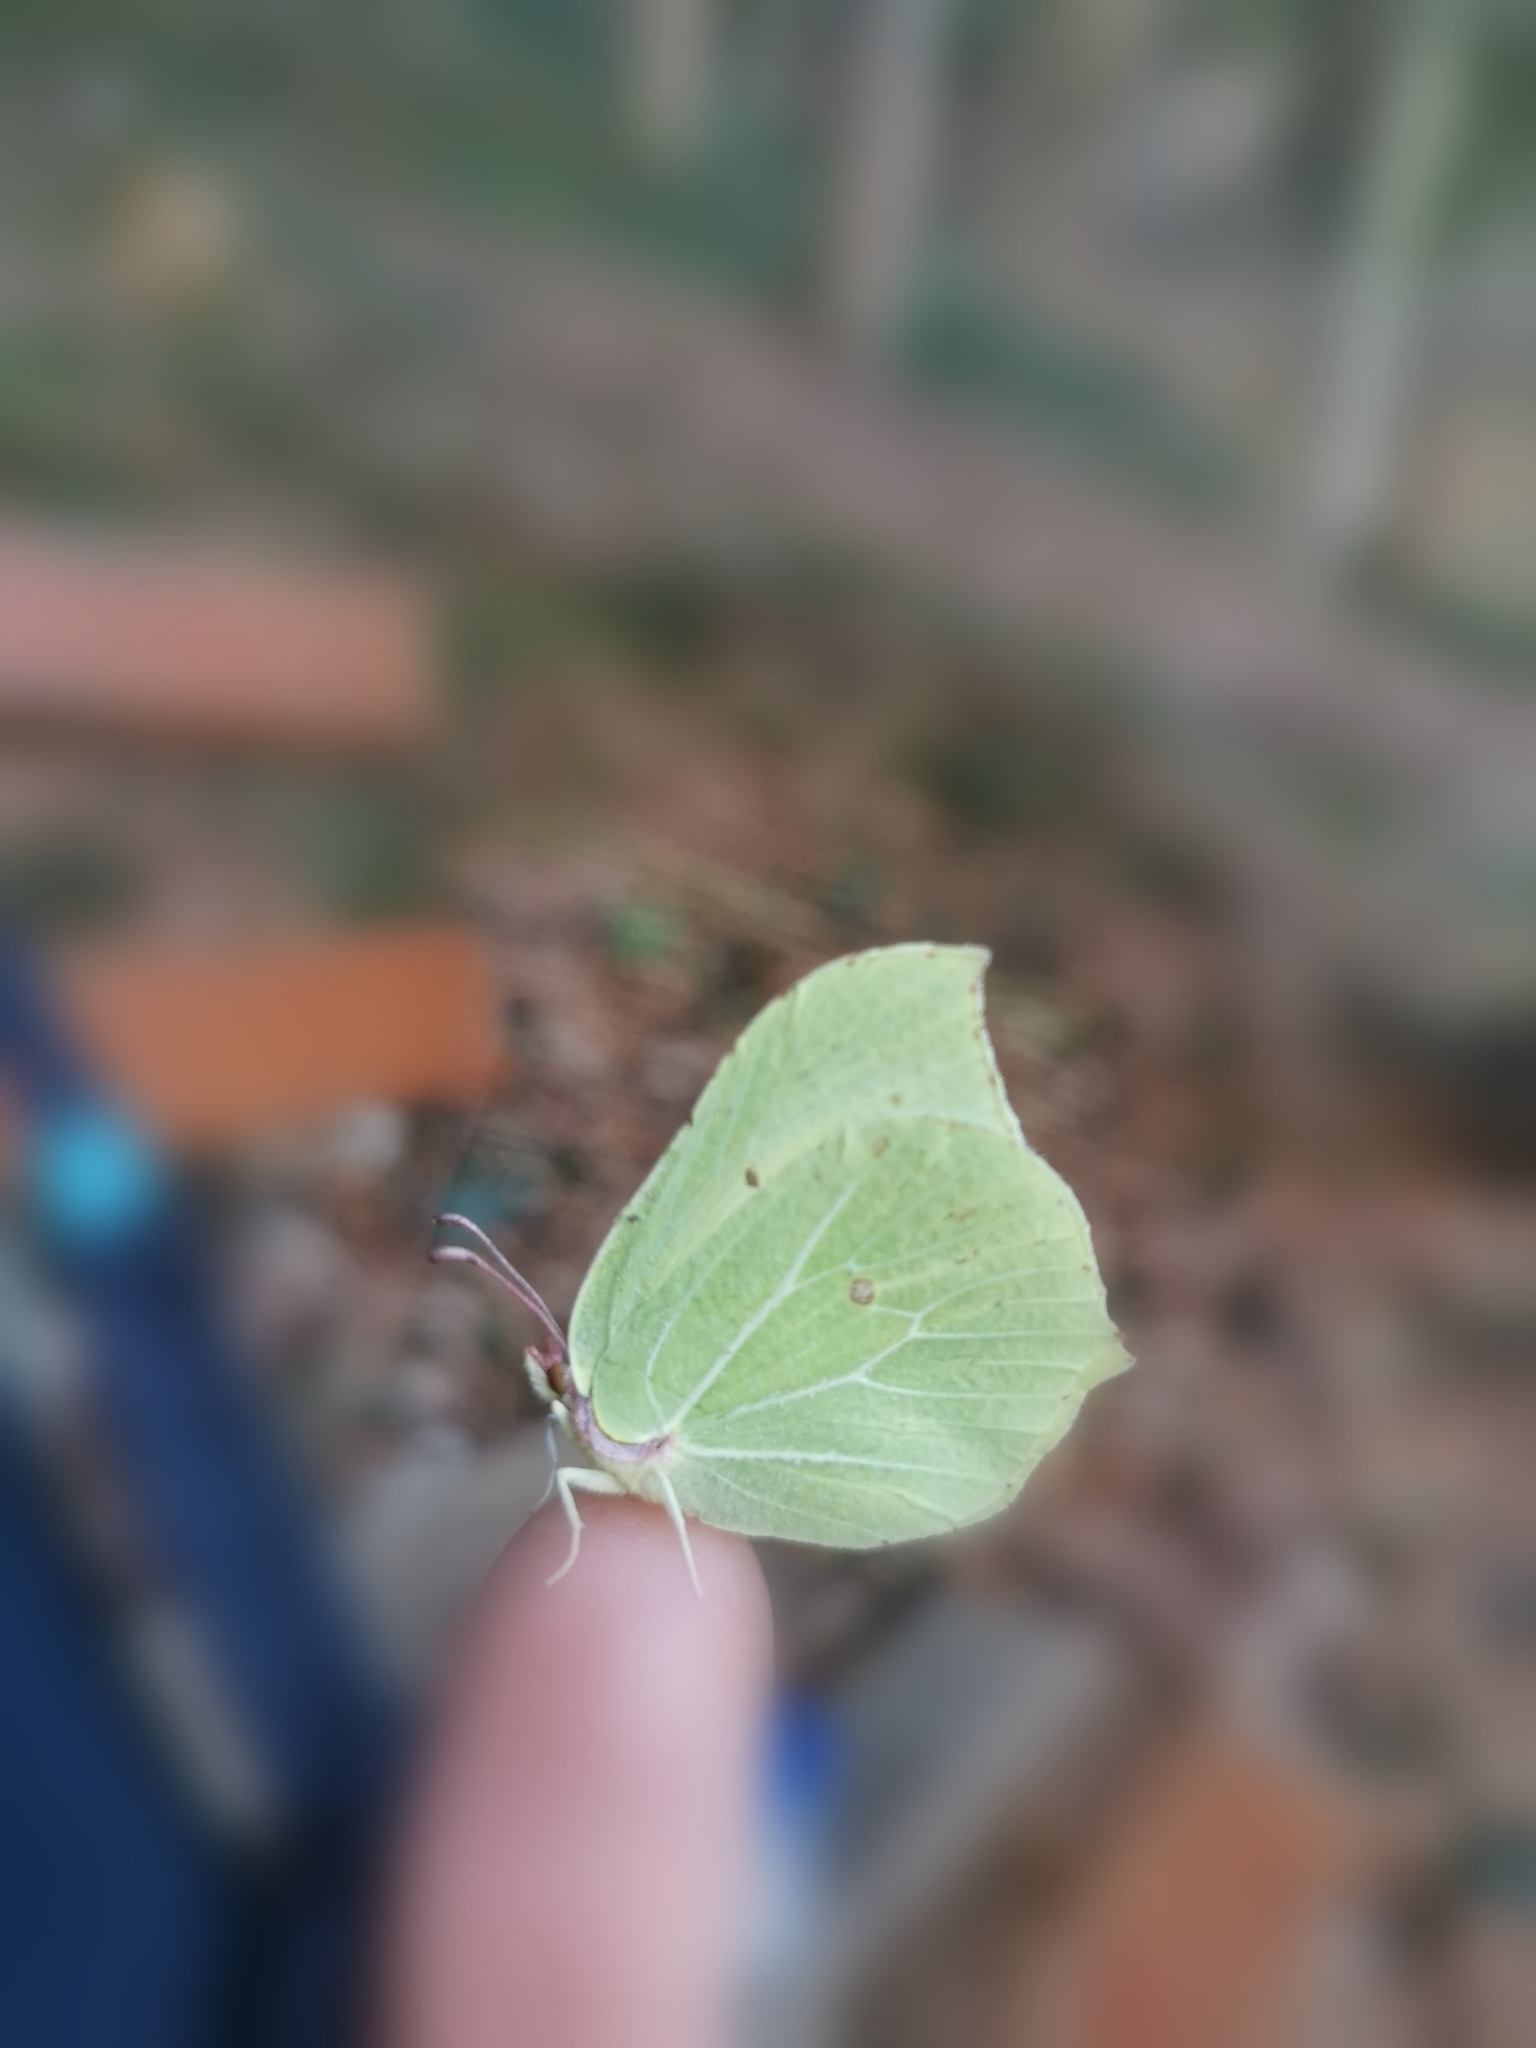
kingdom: Animalia
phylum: Arthropoda
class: Insecta
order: Lepidoptera
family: Pieridae
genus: Gonepteryx
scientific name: Gonepteryx rhamni
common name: Brimstone
